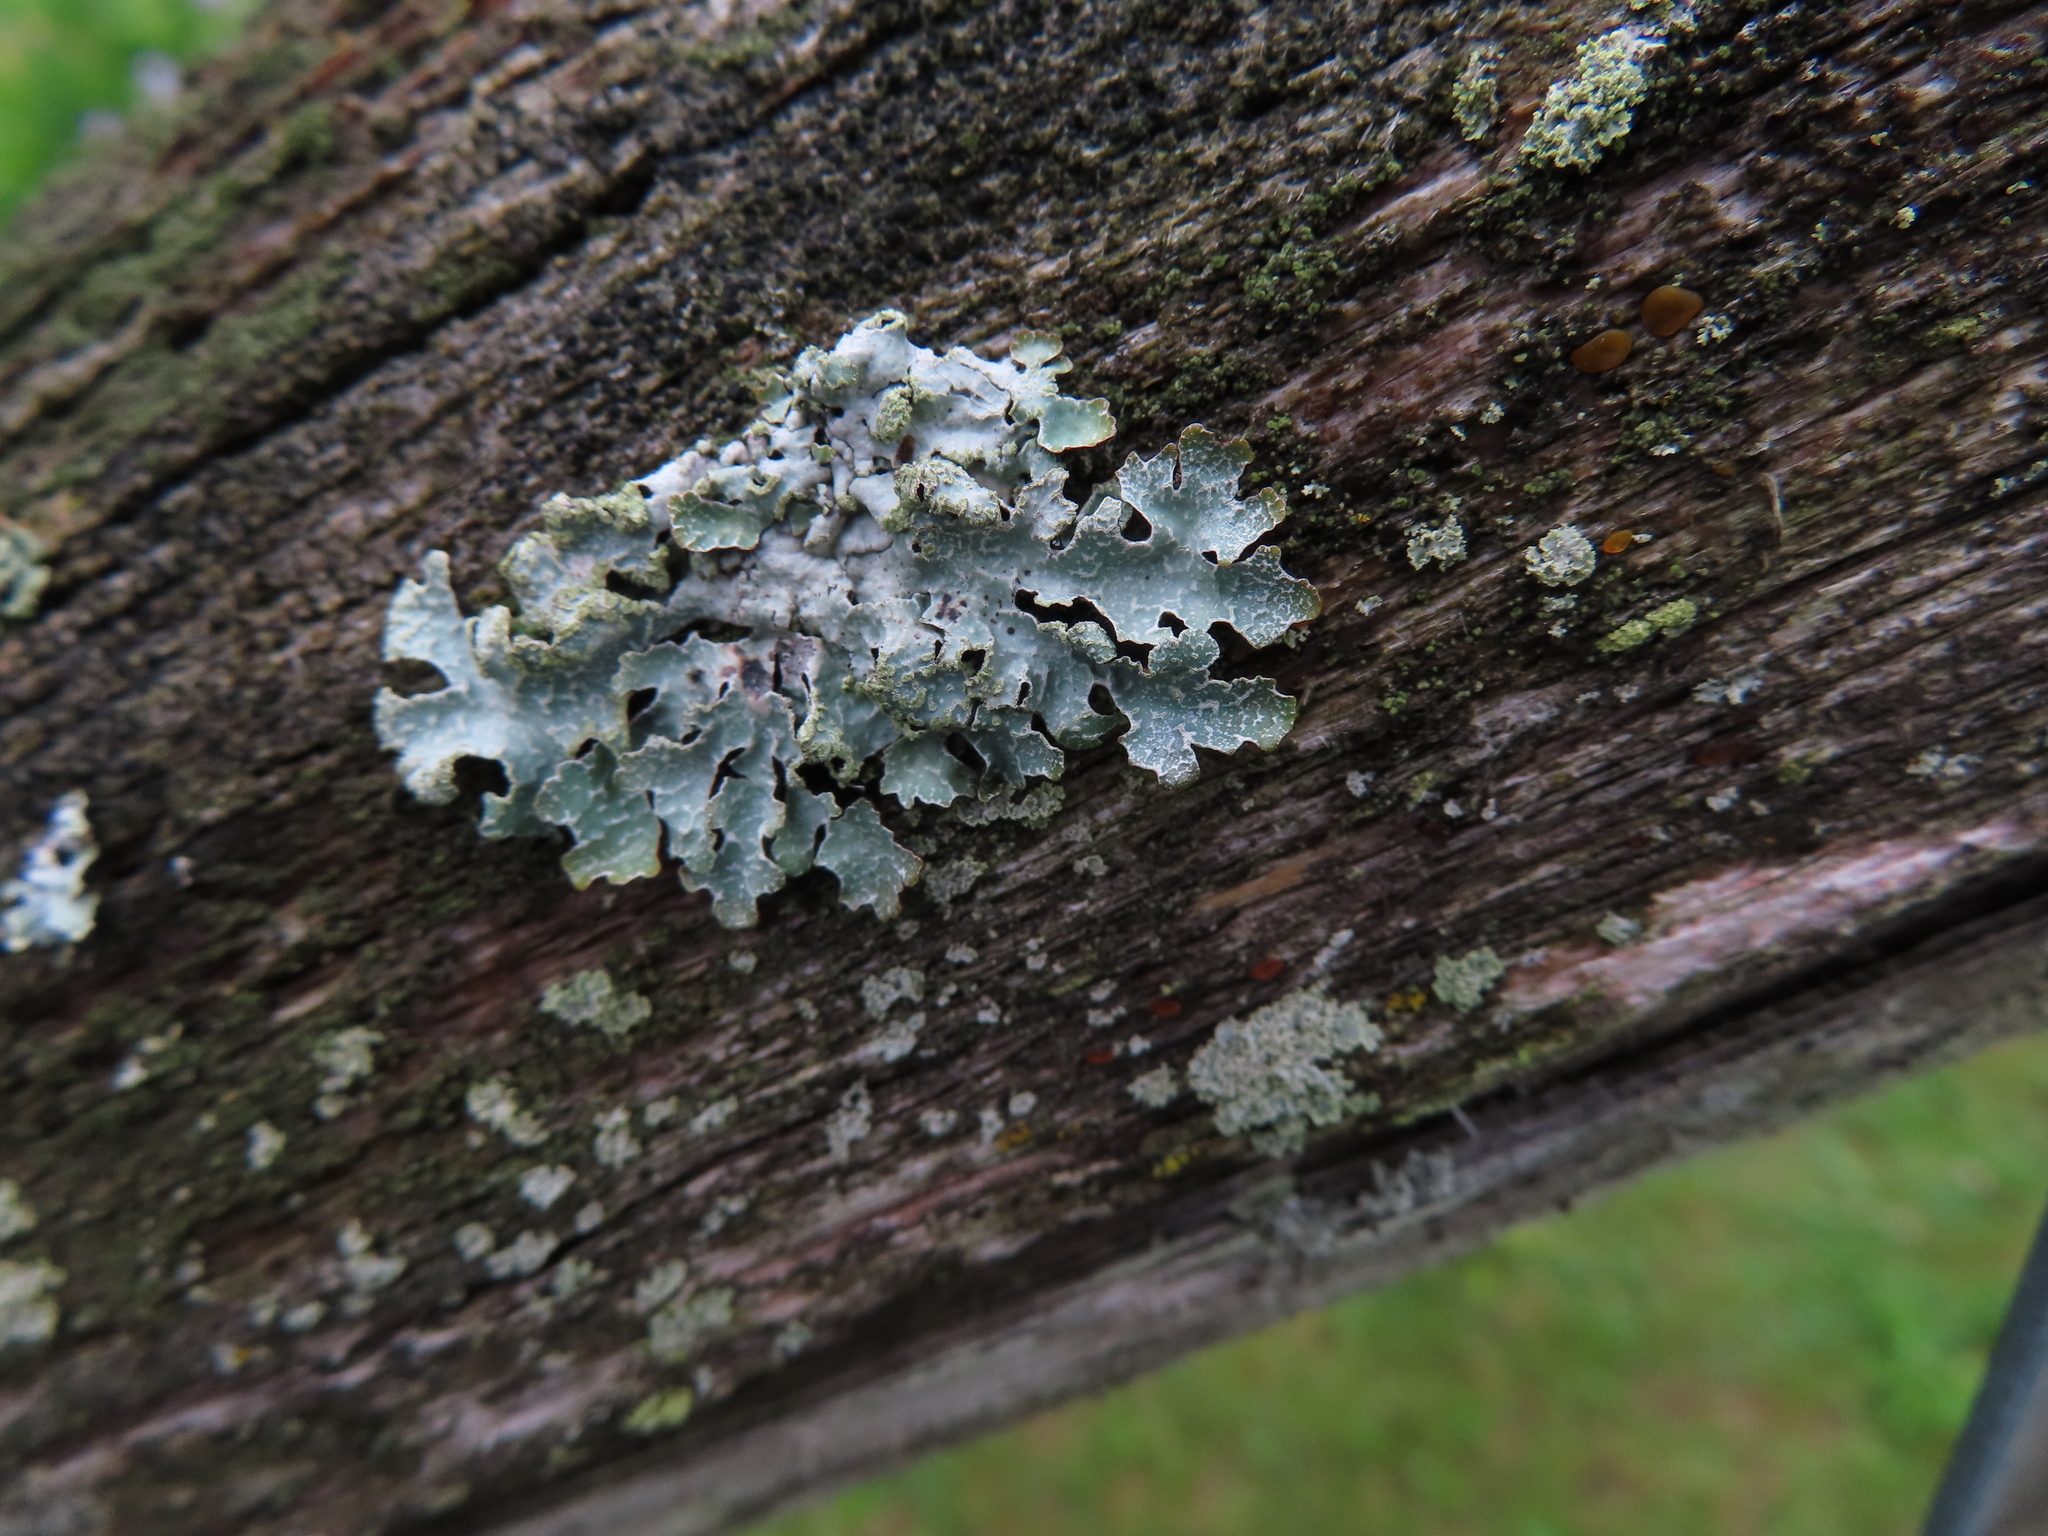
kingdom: Fungi
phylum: Ascomycota
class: Lecanoromycetes
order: Lecanorales
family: Parmeliaceae
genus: Parmelia
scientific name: Parmelia sulcata
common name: Netted shield lichen
